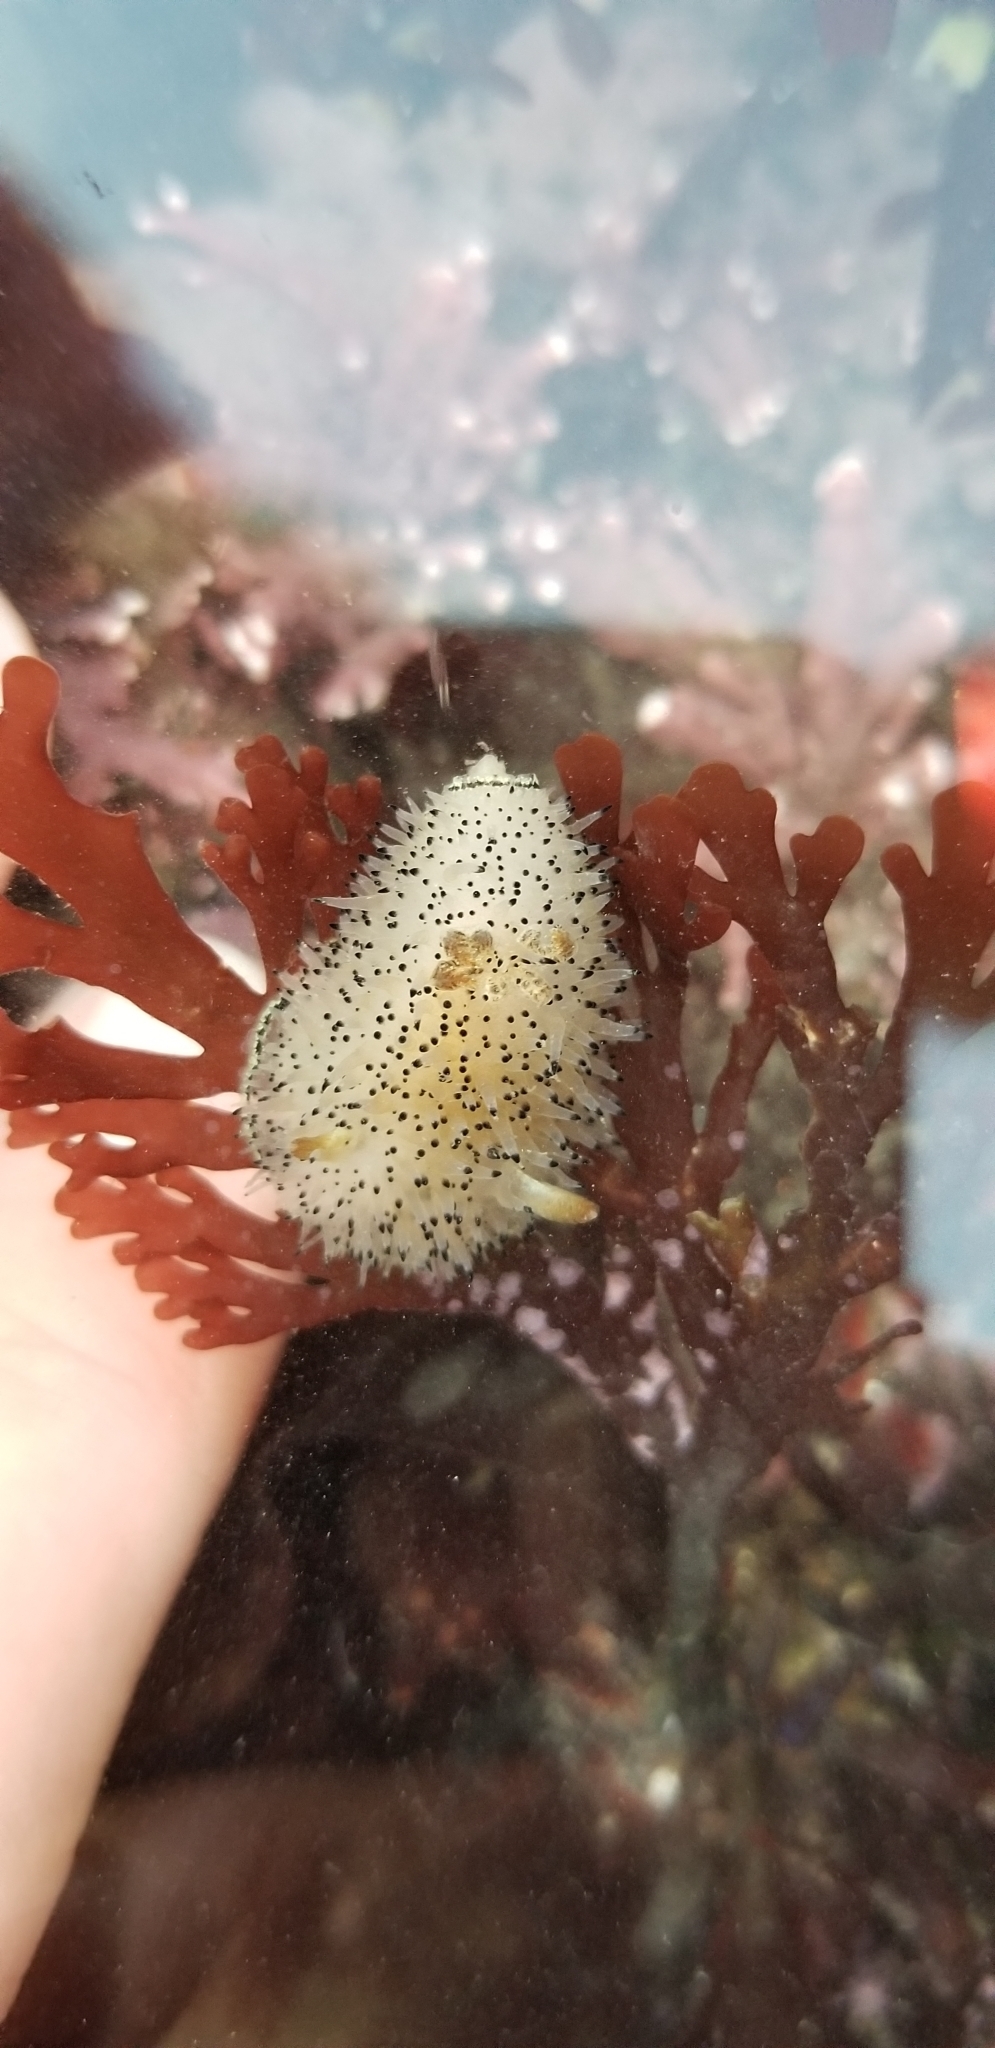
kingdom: Animalia
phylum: Mollusca
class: Gastropoda
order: Nudibranchia
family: Onchidorididae
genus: Acanthodoris
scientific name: Acanthodoris rhodoceras
